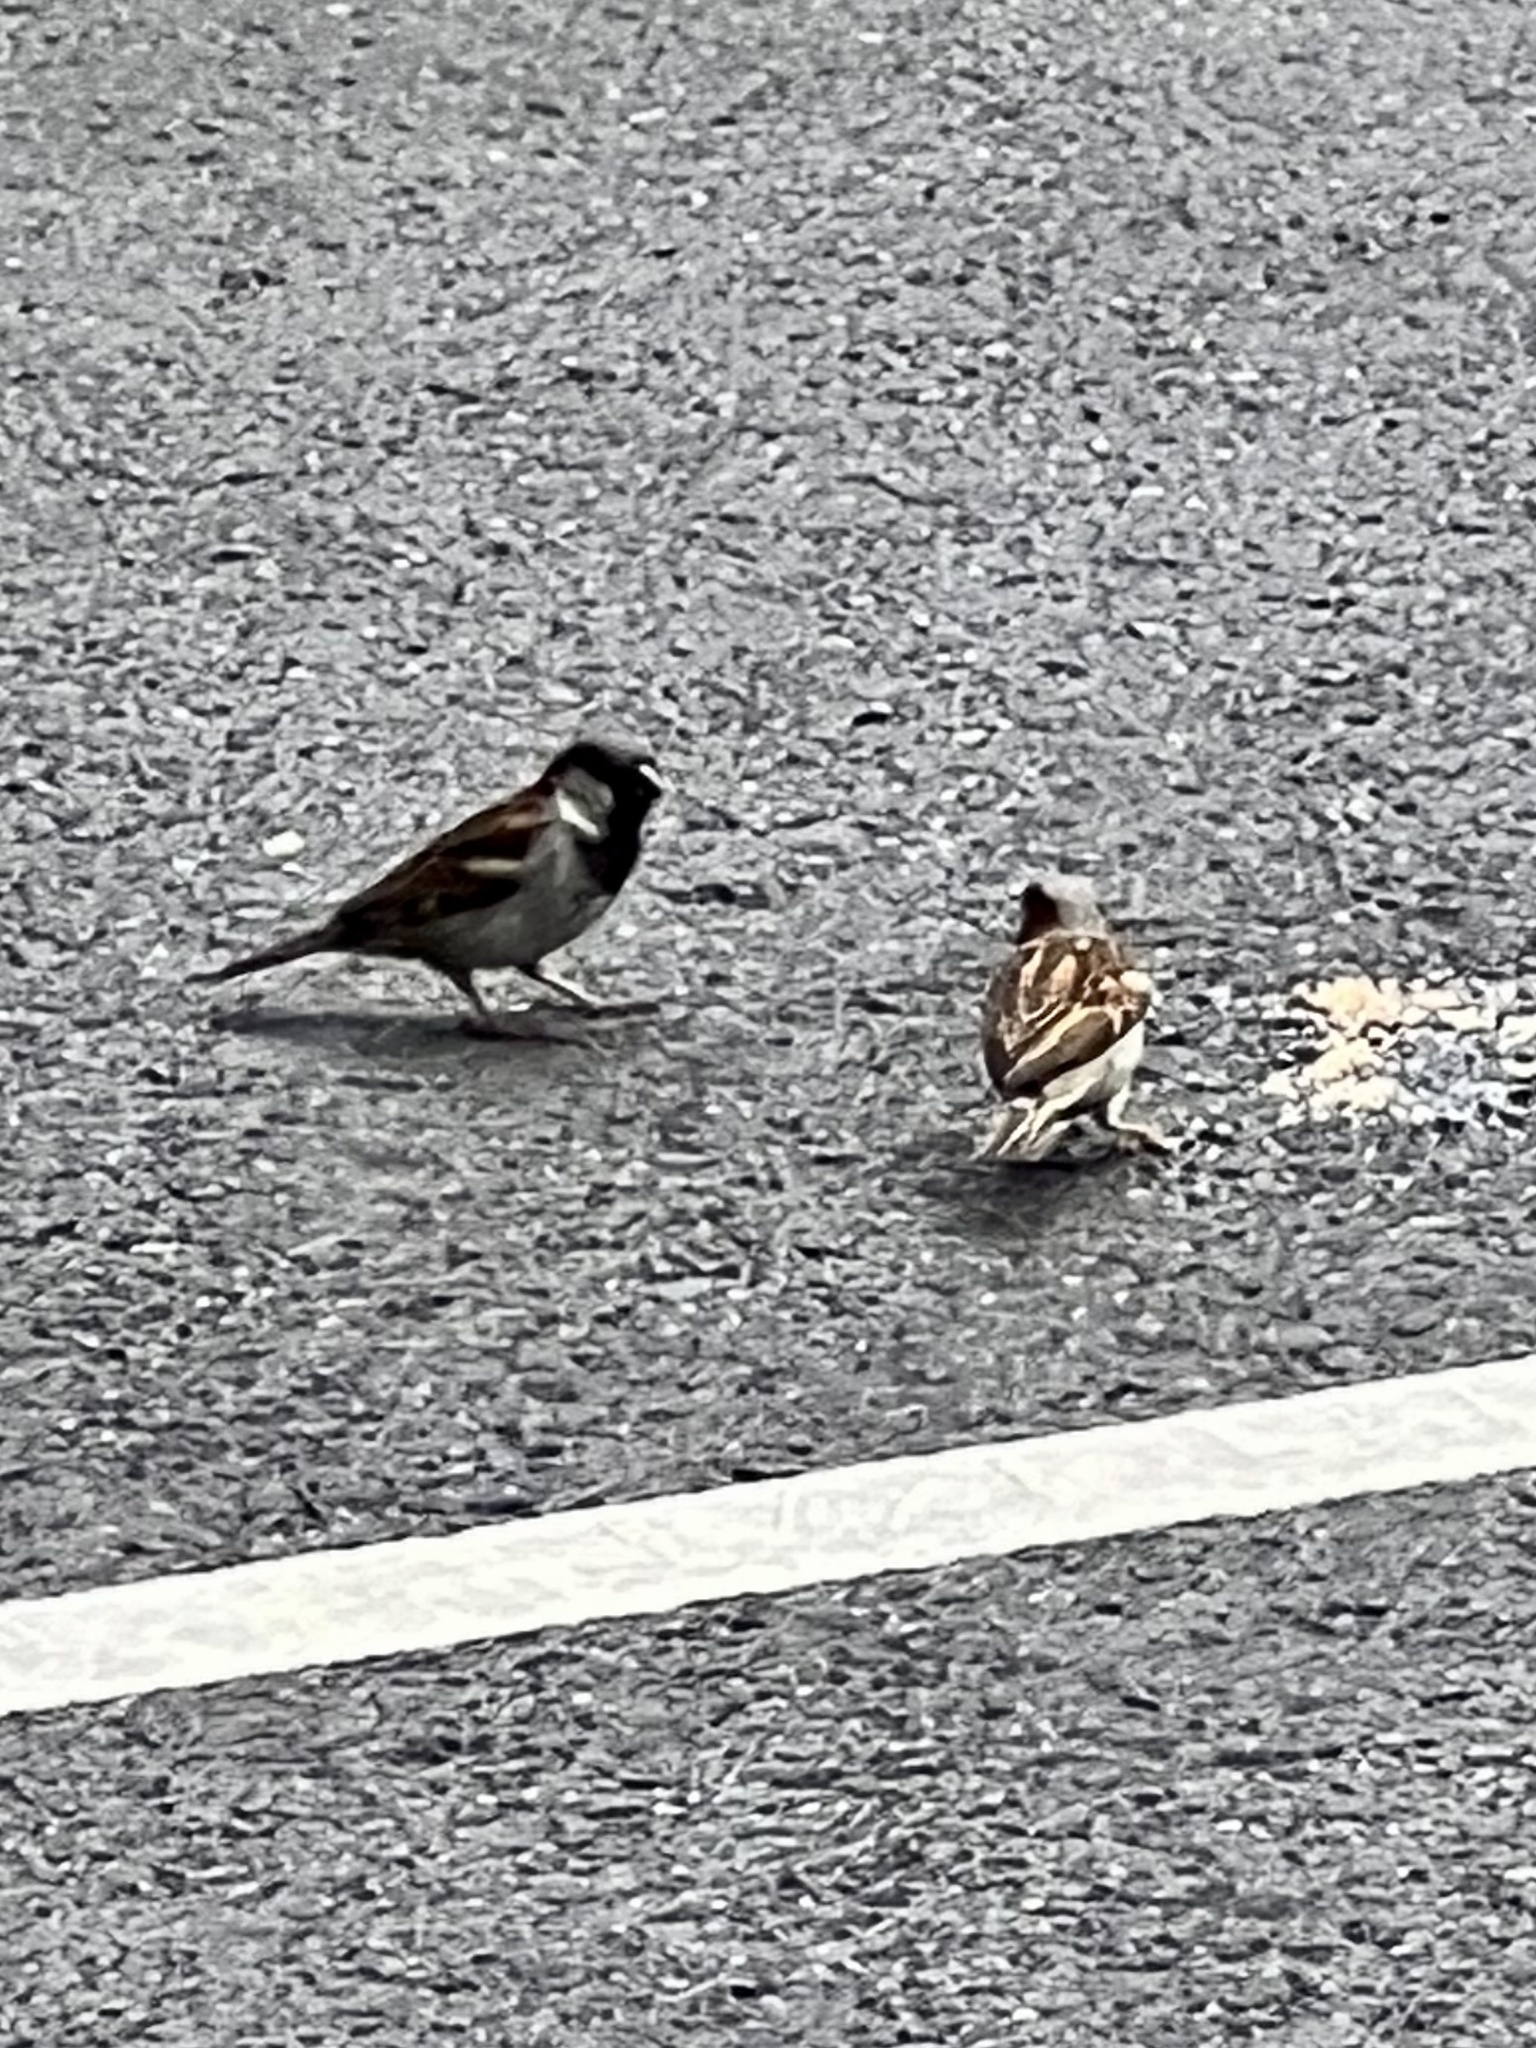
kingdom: Animalia
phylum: Chordata
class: Aves
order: Passeriformes
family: Passeridae
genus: Passer
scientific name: Passer domesticus
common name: House sparrow
